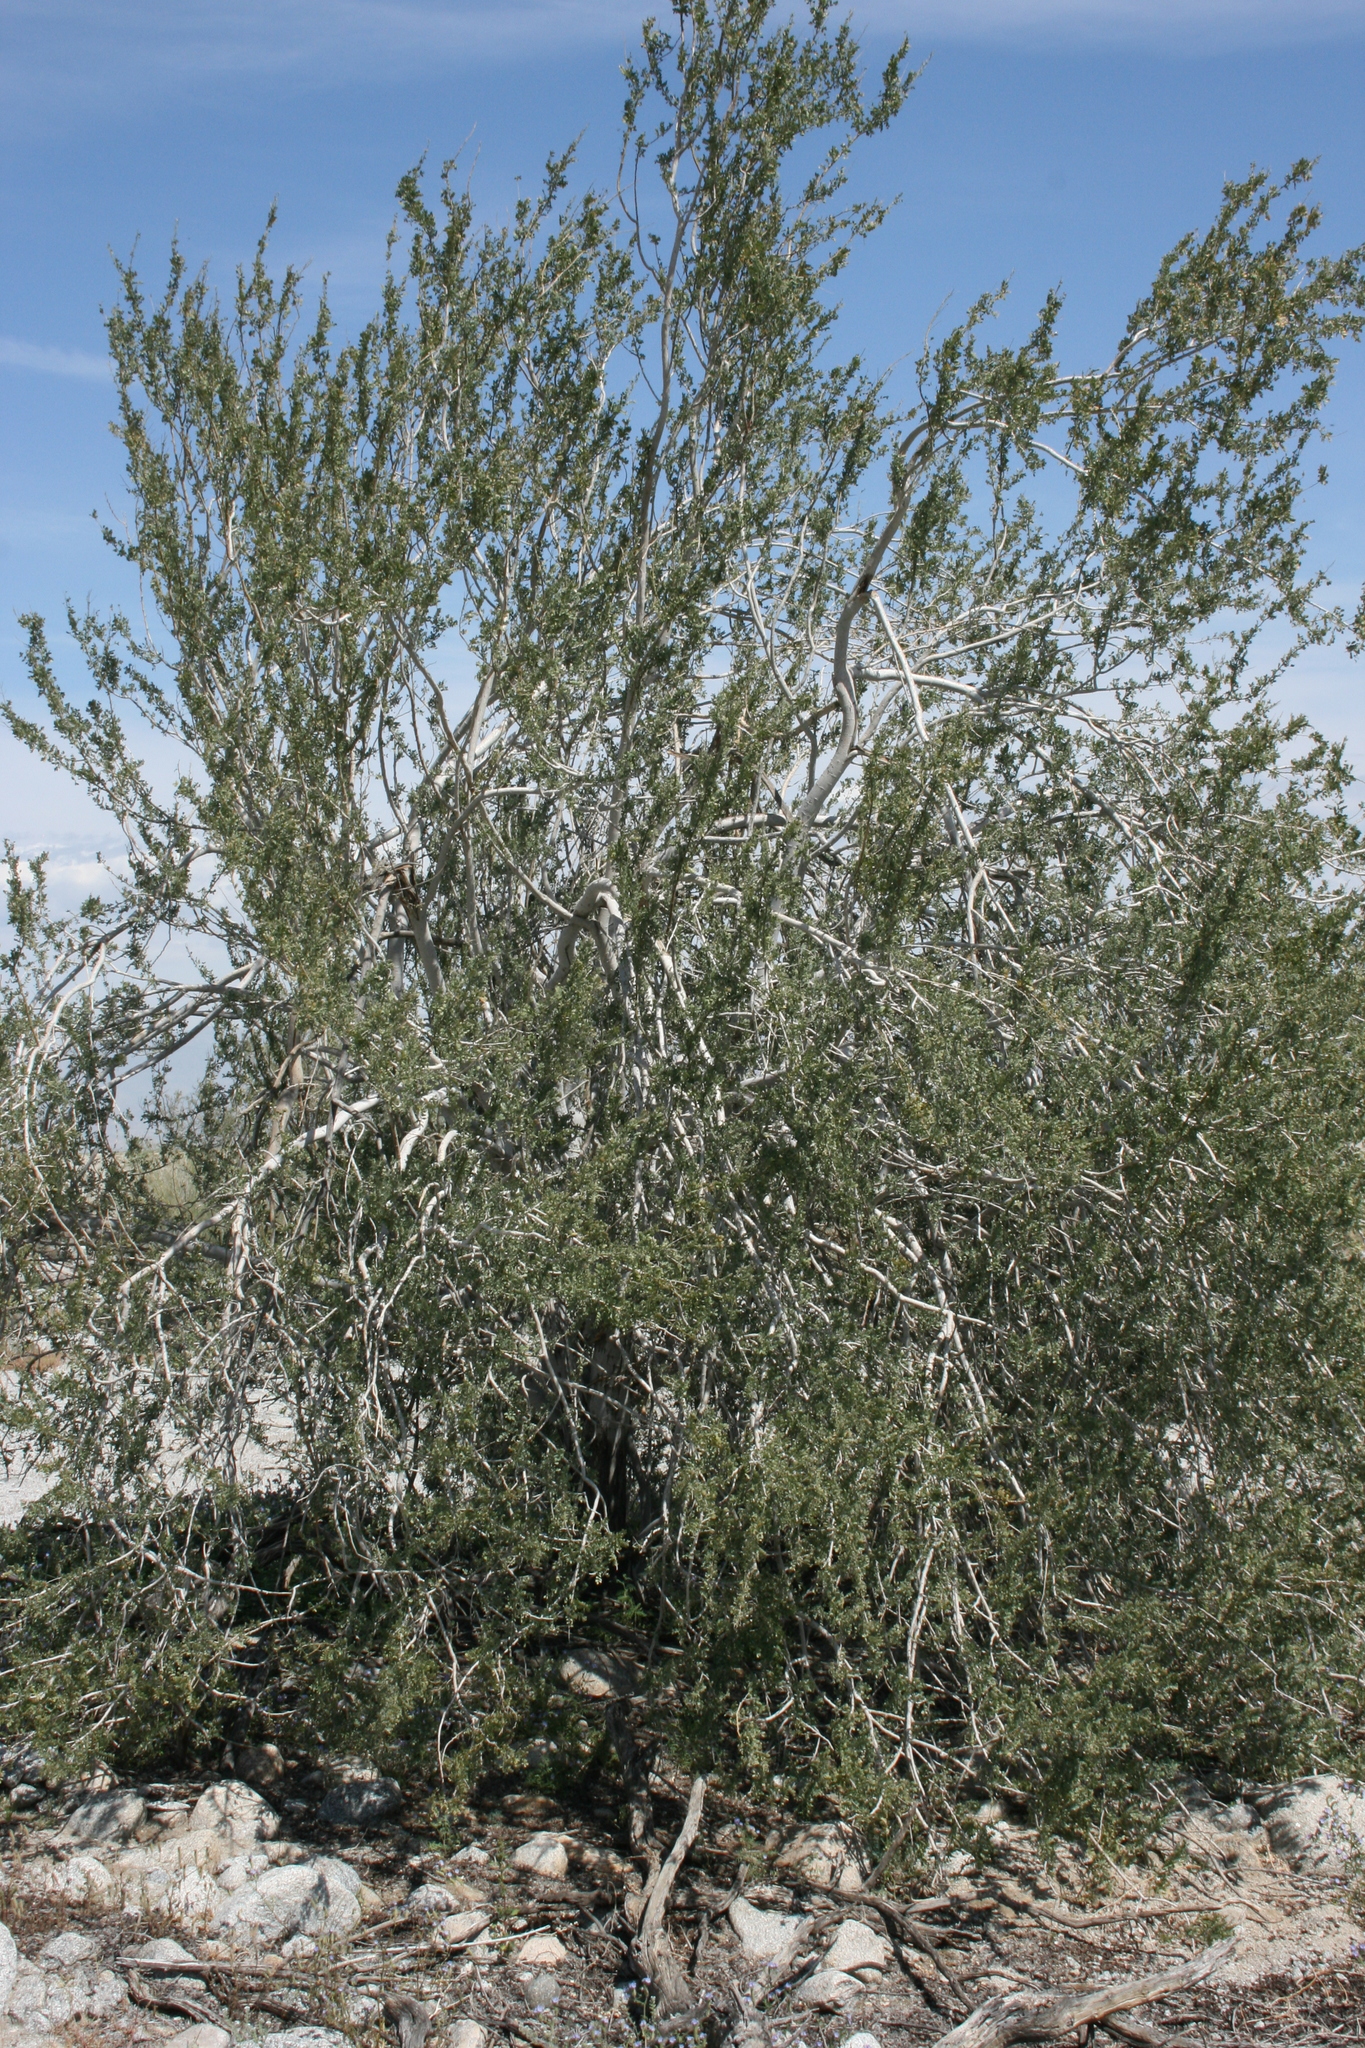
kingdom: Plantae
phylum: Tracheophyta
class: Magnoliopsida
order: Fabales
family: Fabaceae
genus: Olneya
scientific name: Olneya tesota
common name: Desert ironwood
